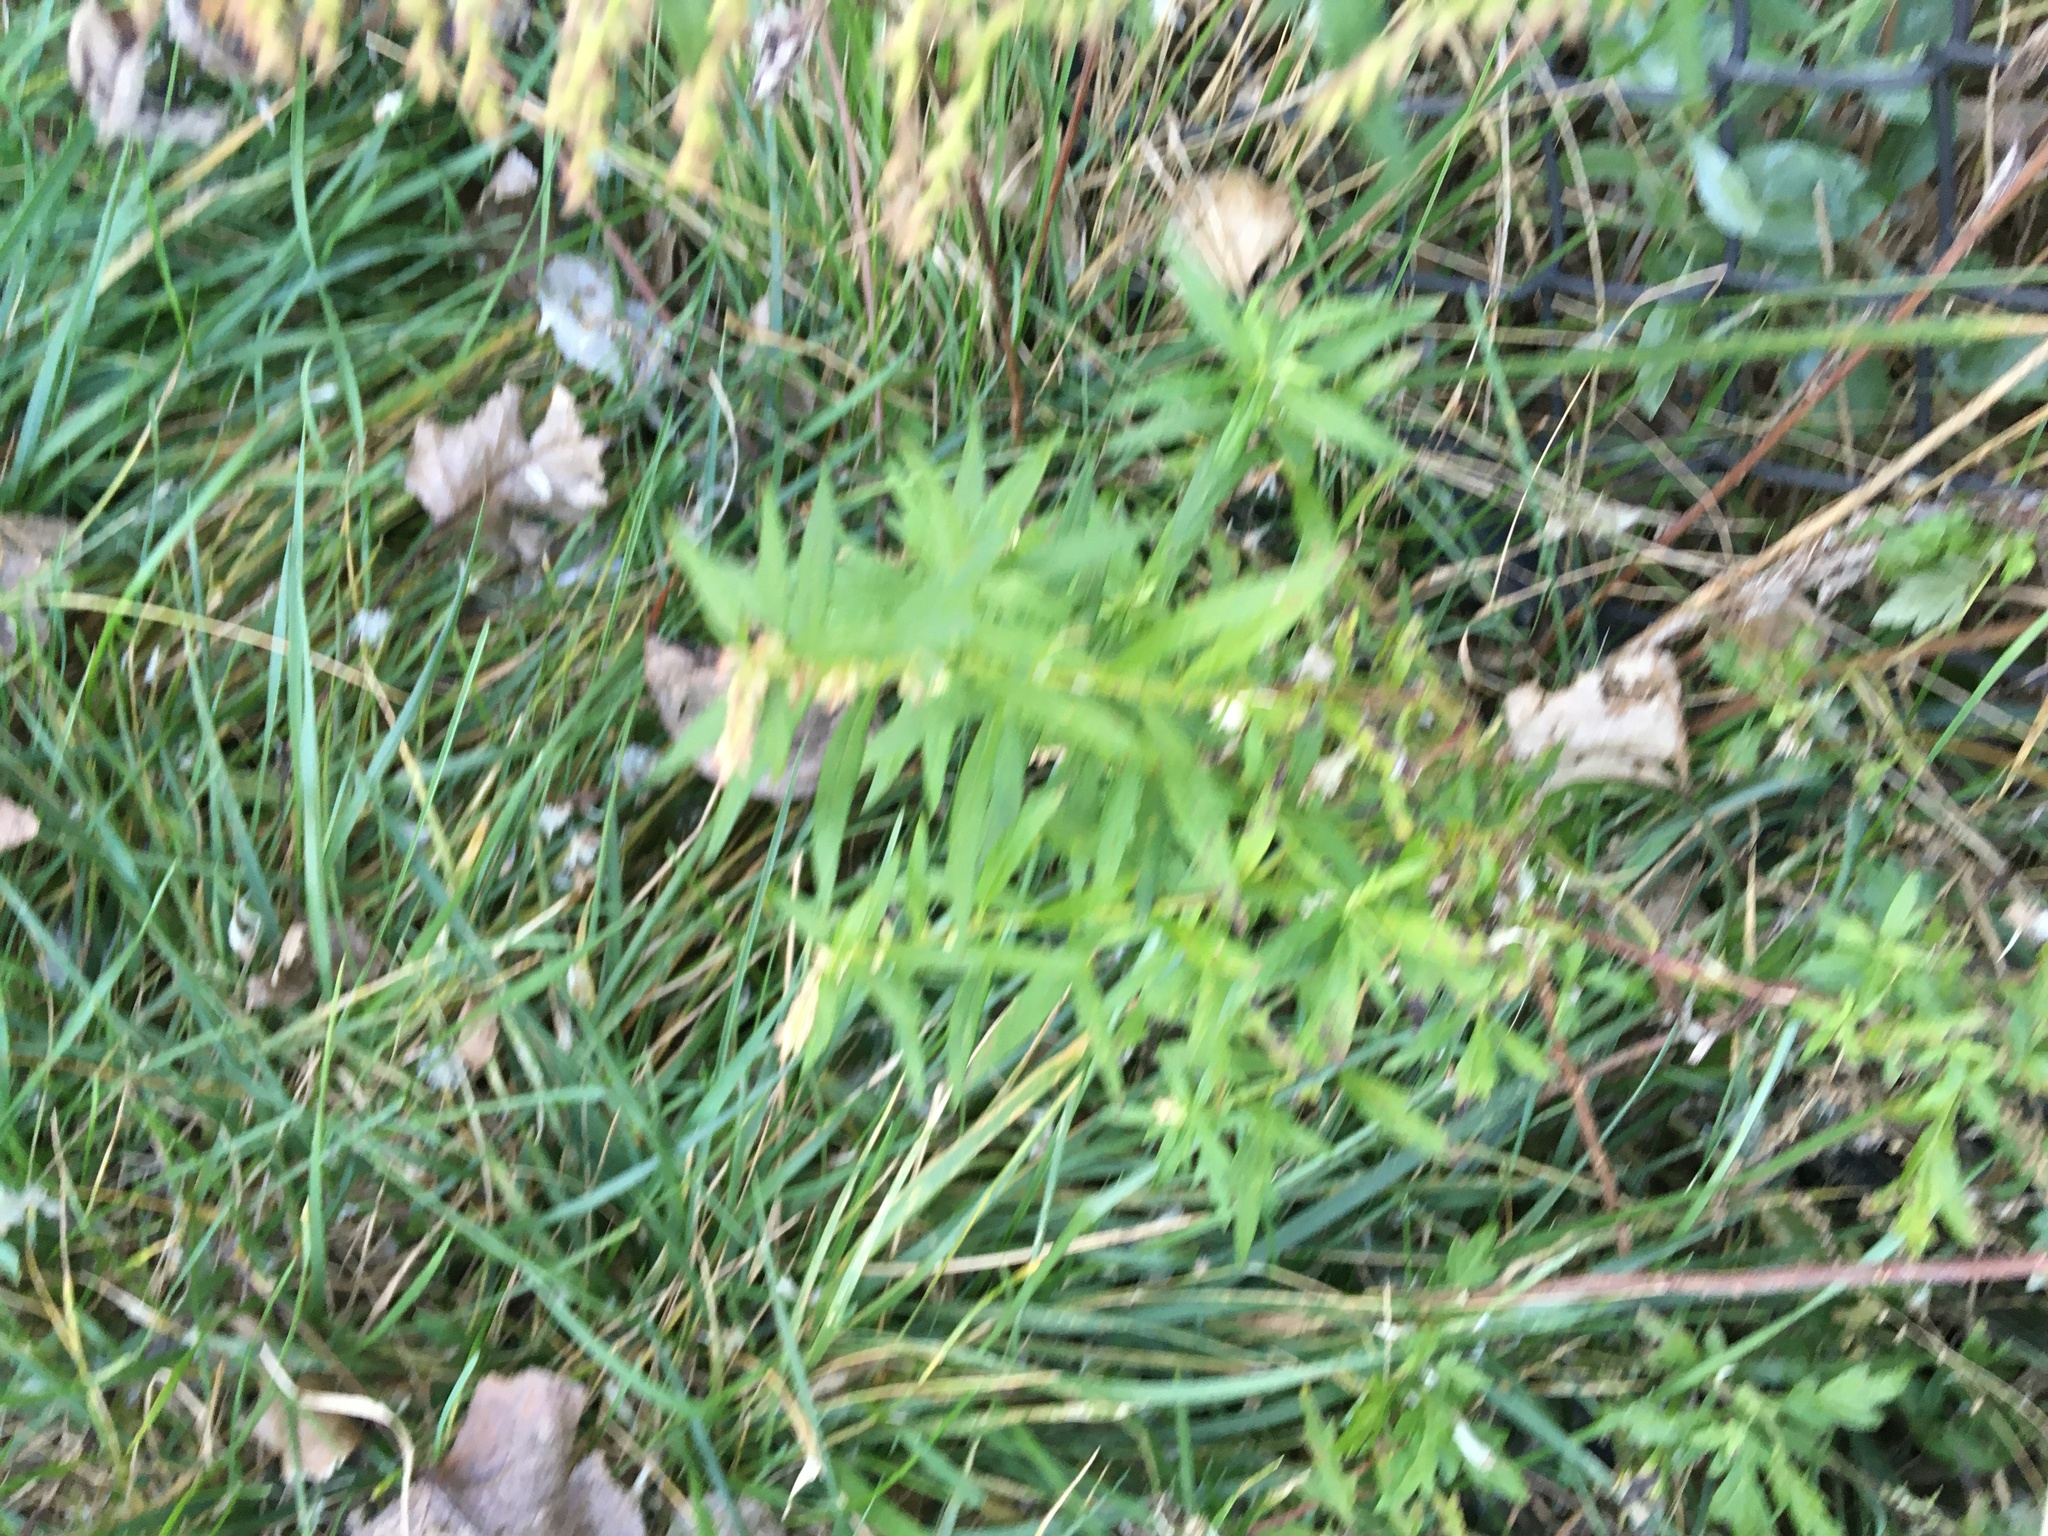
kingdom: Plantae
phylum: Tracheophyta
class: Magnoliopsida
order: Asterales
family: Asteraceae
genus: Artemisia
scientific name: Artemisia vulgaris
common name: Mugwort
